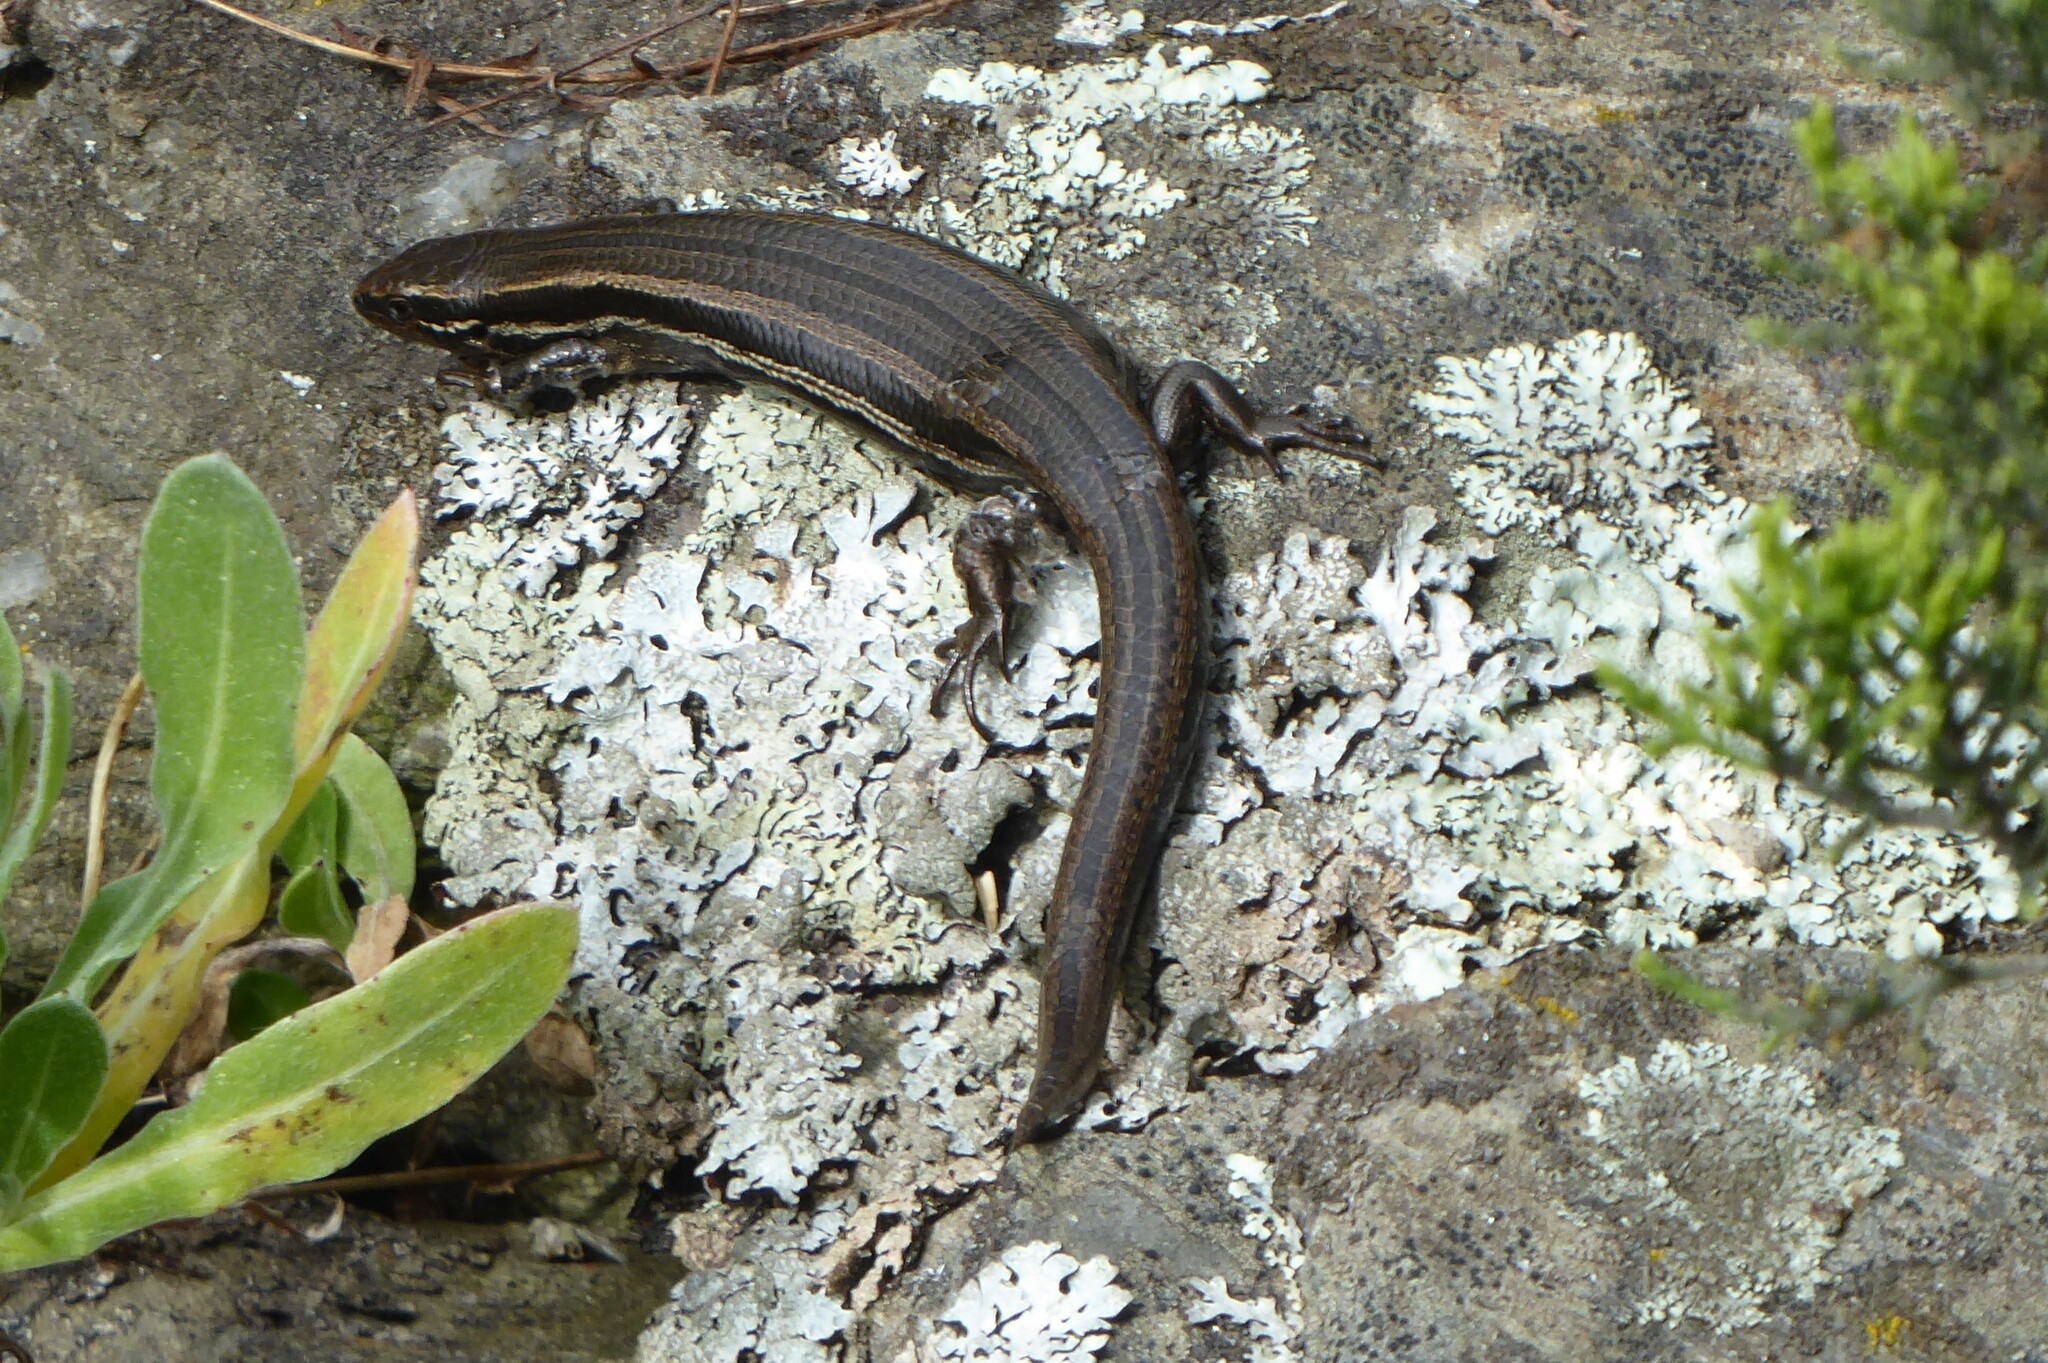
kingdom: Animalia
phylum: Chordata
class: Squamata
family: Scincidae
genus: Oligosoma
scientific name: Oligosoma polychroma
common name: Common new zealand skink
